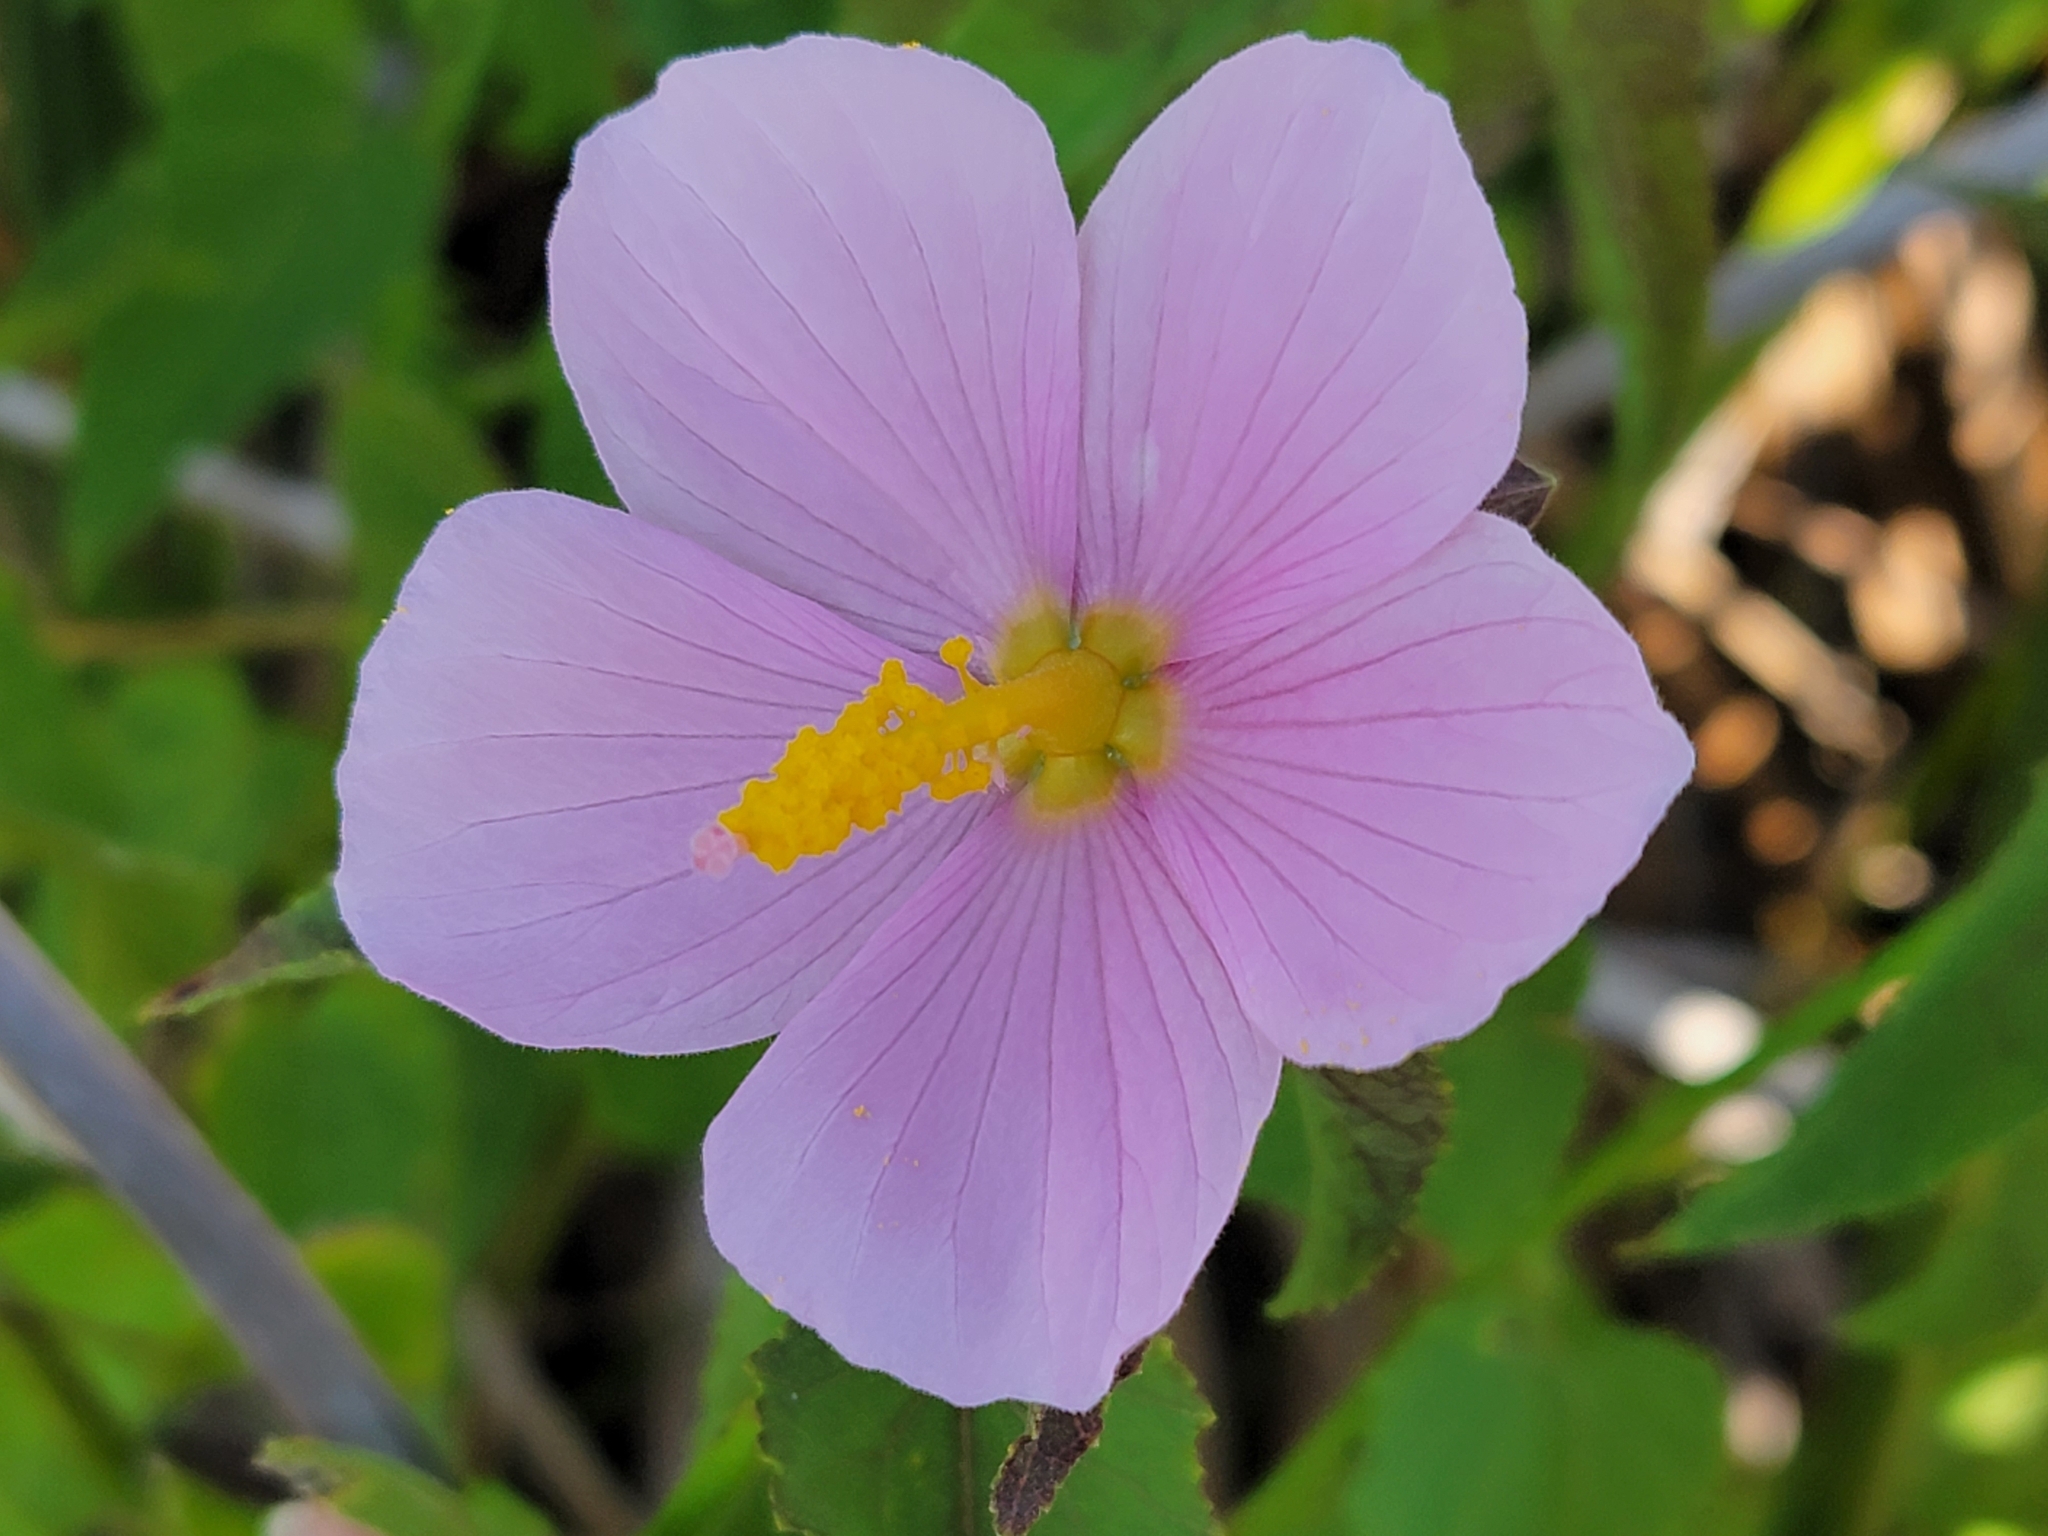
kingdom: Plantae
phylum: Tracheophyta
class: Magnoliopsida
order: Malvales
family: Malvaceae
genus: Kosteletzkya
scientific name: Kosteletzkya pentacarpos
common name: Virginia saltmarsh mallow
